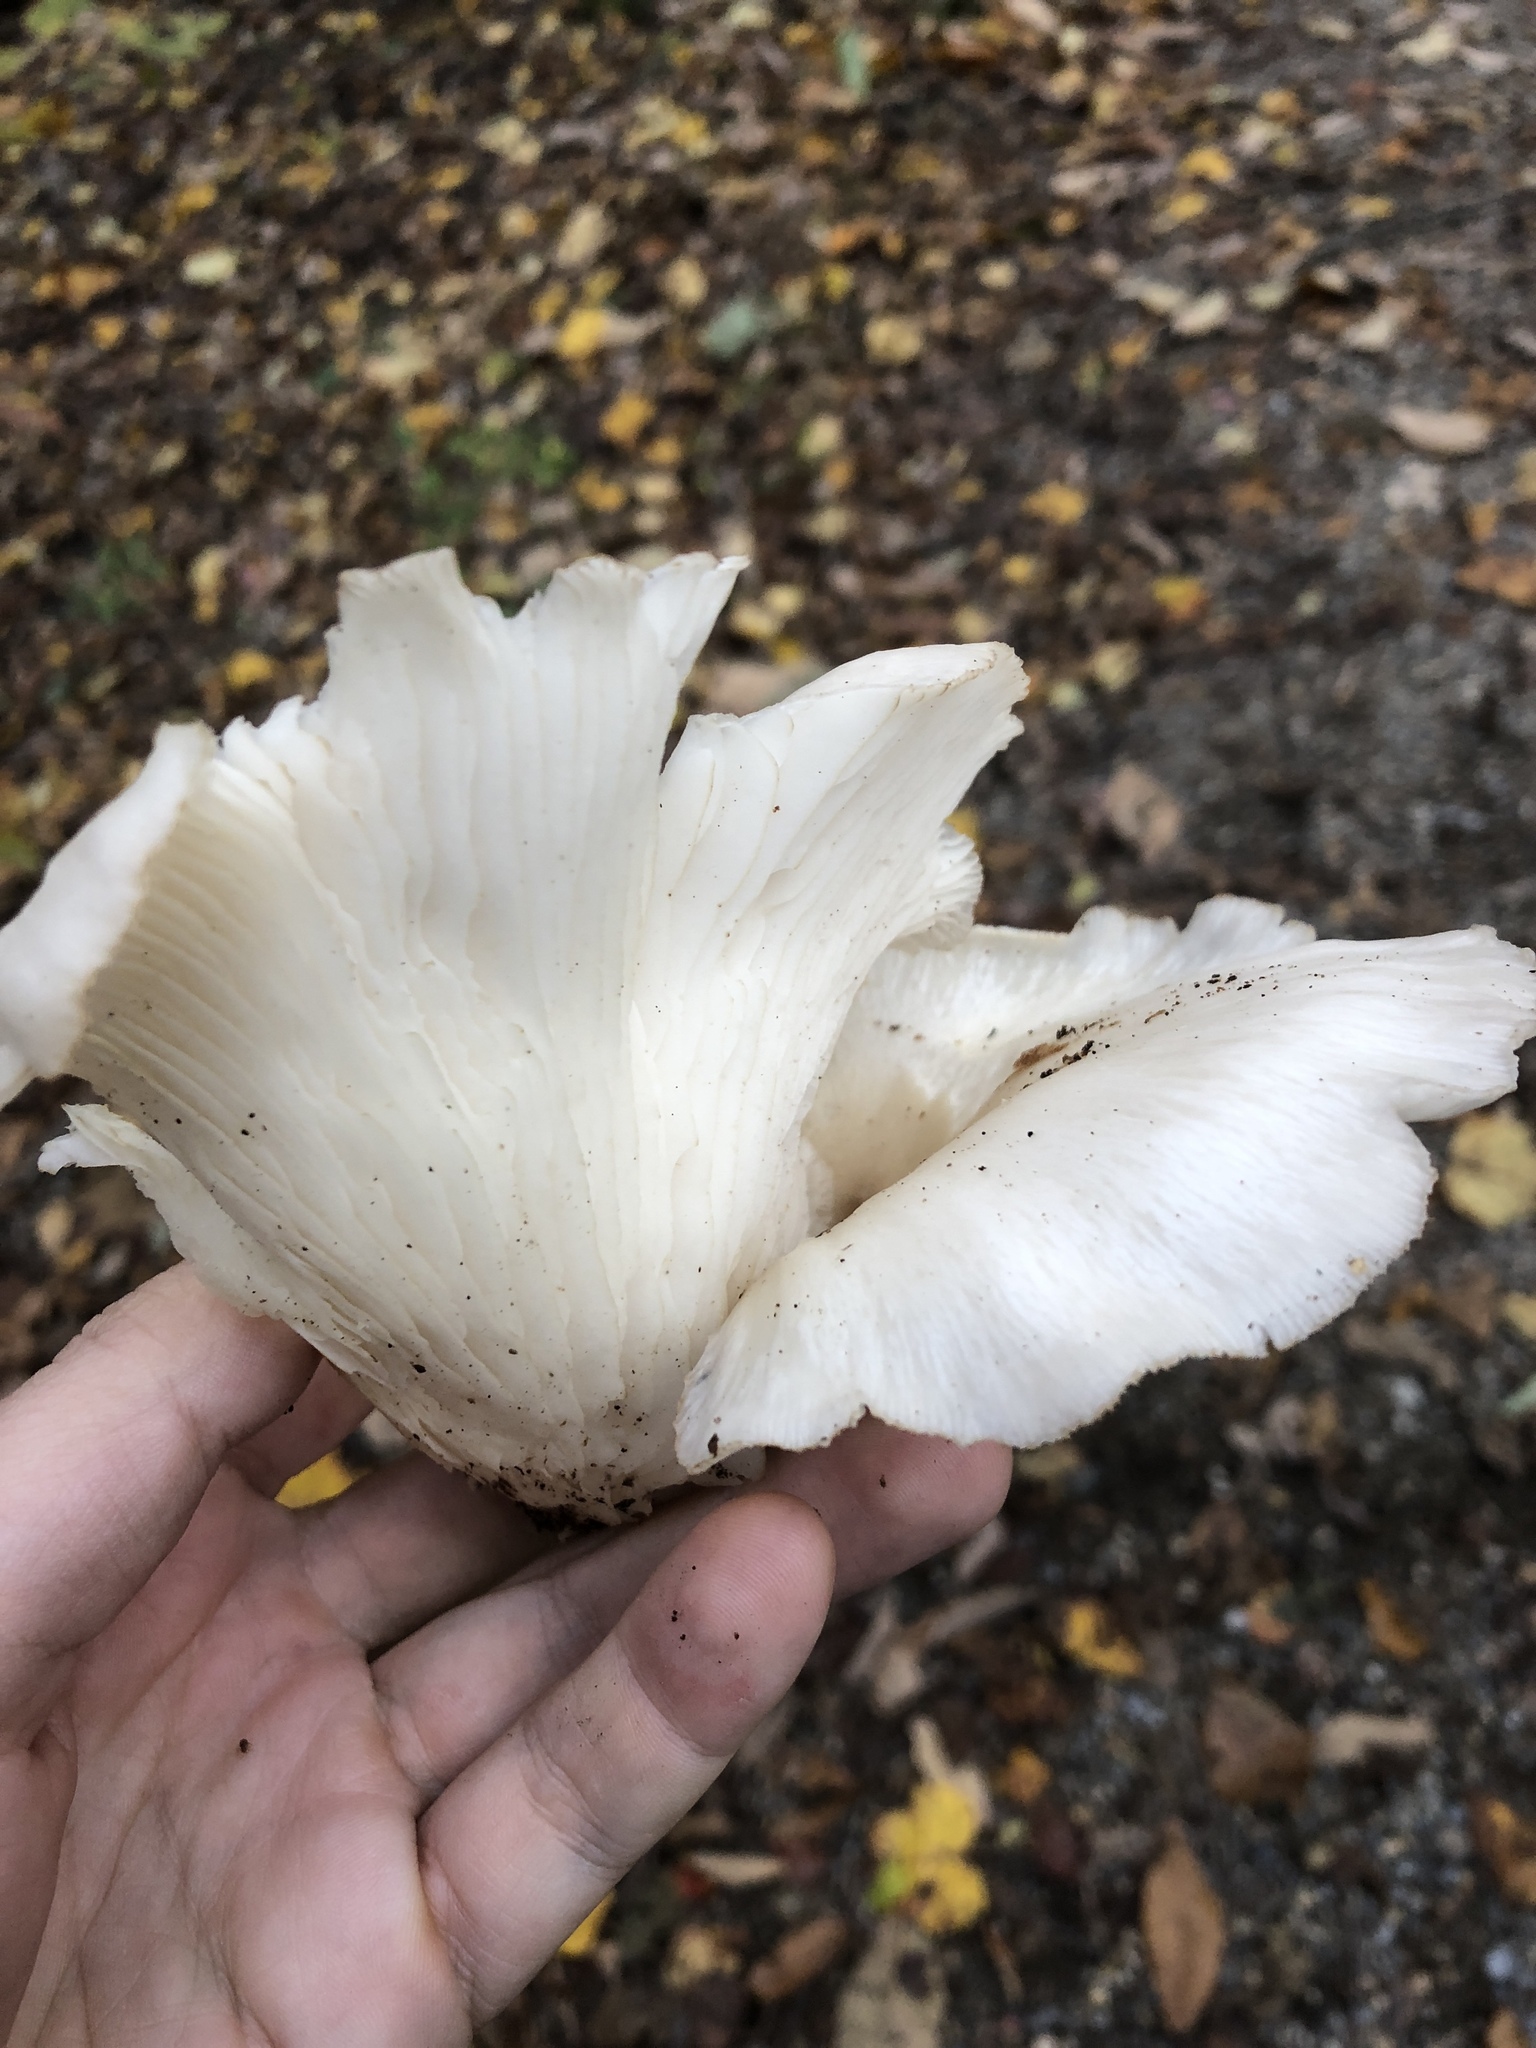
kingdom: Fungi
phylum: Basidiomycota
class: Agaricomycetes
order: Agaricales
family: Pleurotaceae
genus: Pleurotus
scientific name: Pleurotus ostreatus
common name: Oyster mushroom
